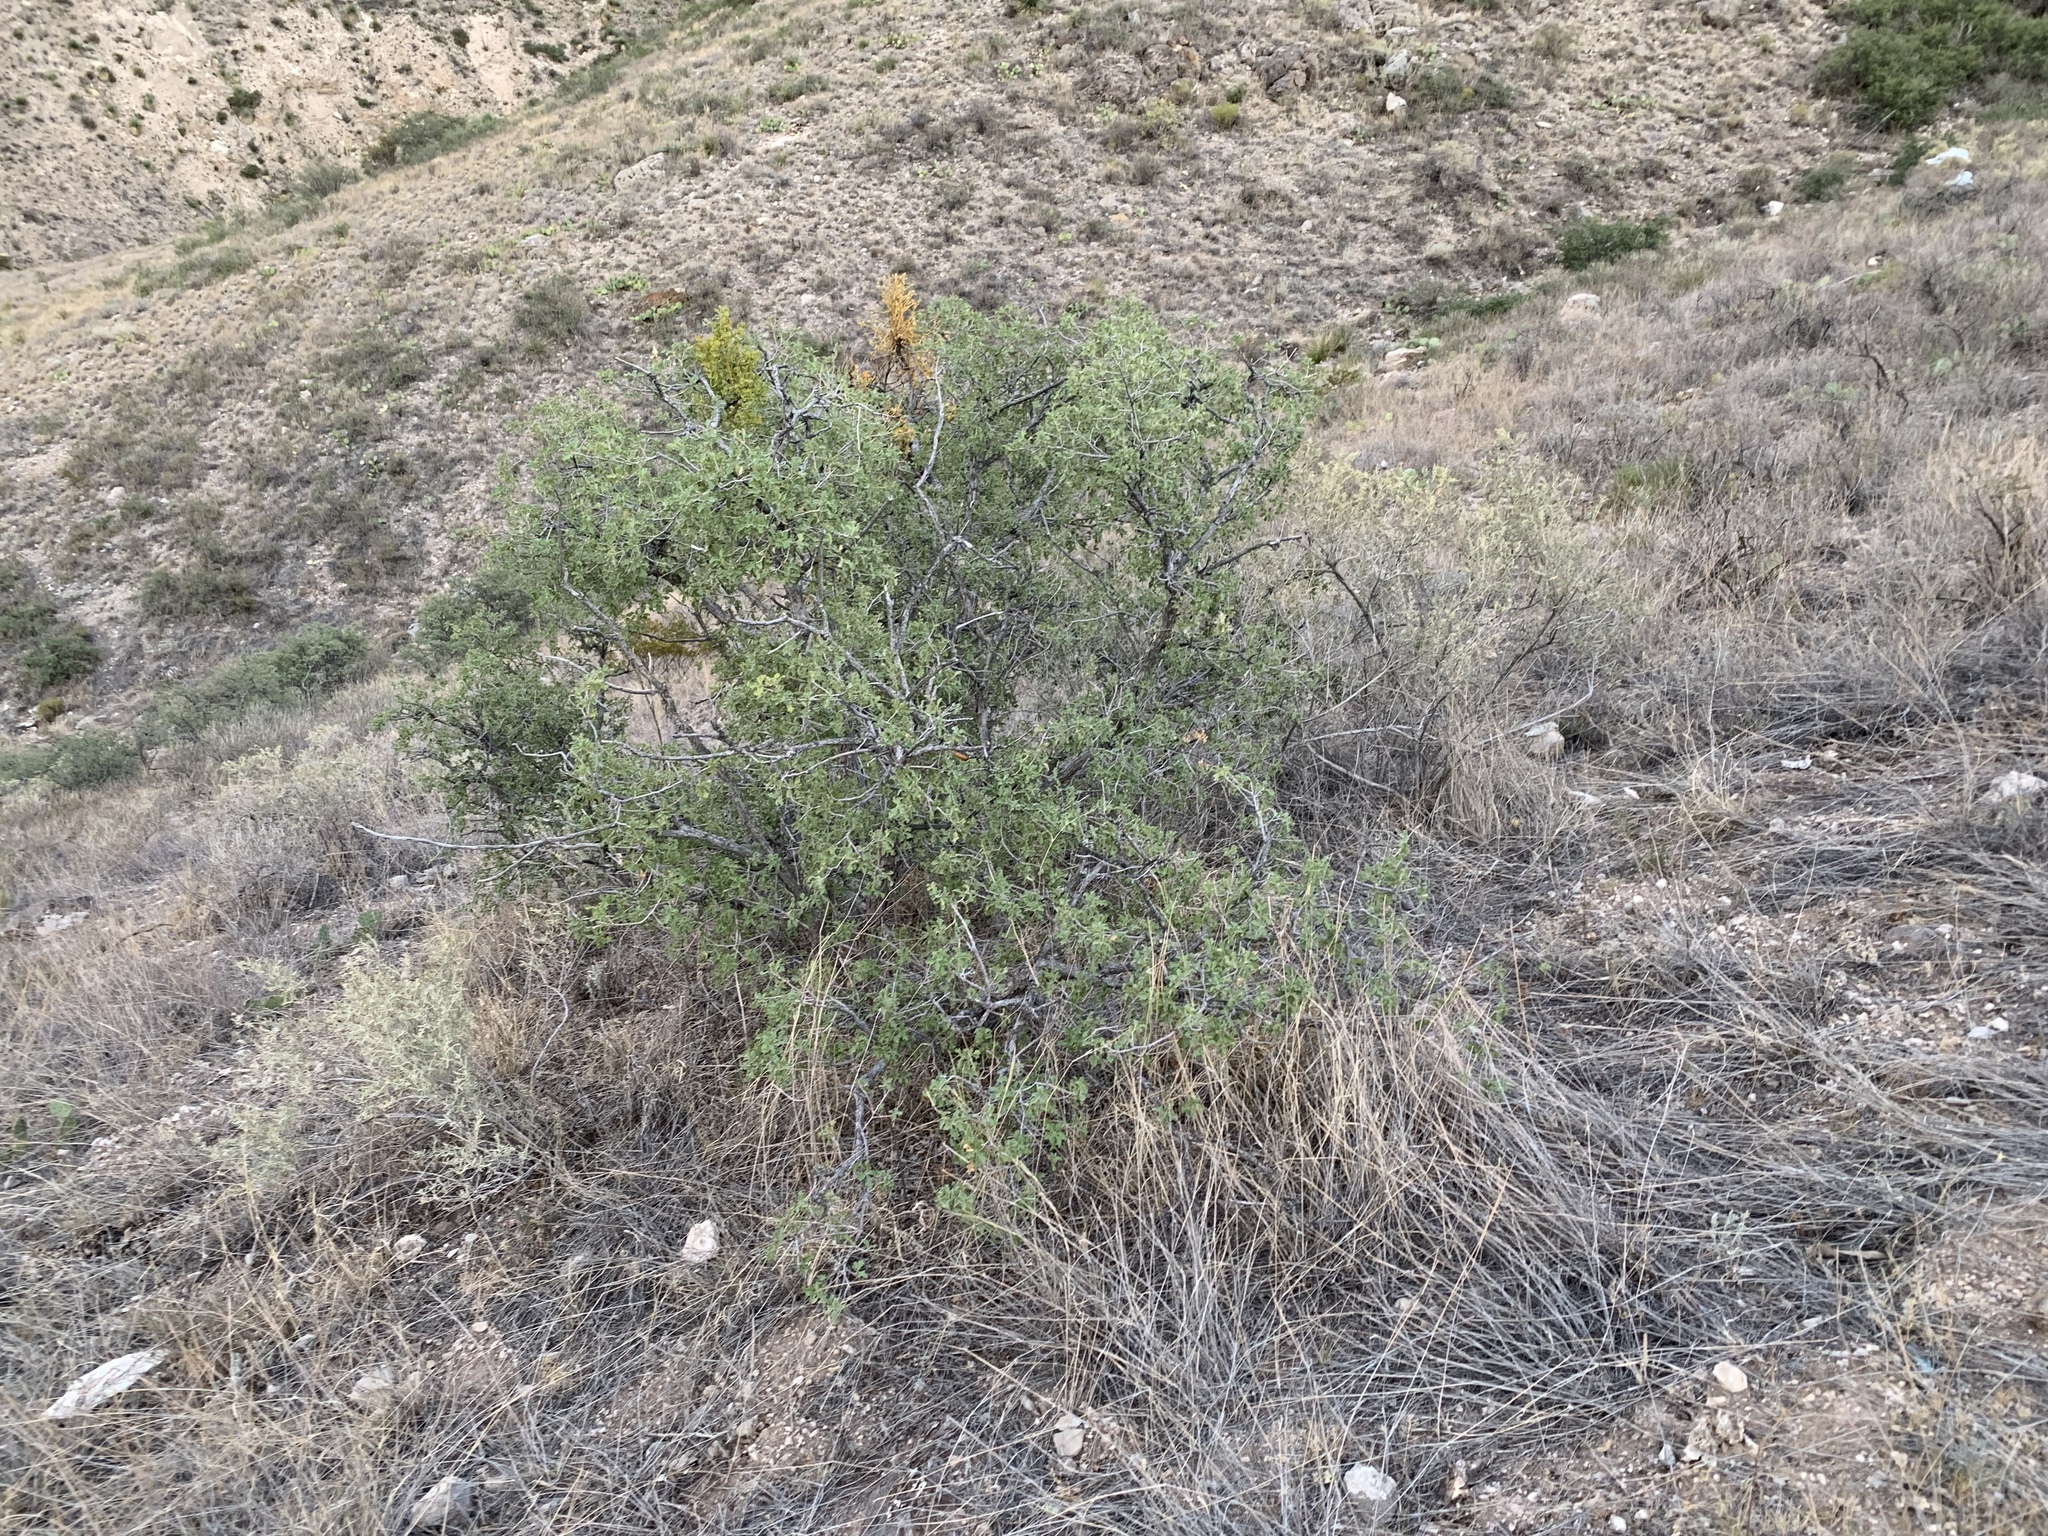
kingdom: Plantae
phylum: Tracheophyta
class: Magnoliopsida
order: Fagales
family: Fagaceae
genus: Quercus
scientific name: Quercus pungens
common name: Pungent oak
